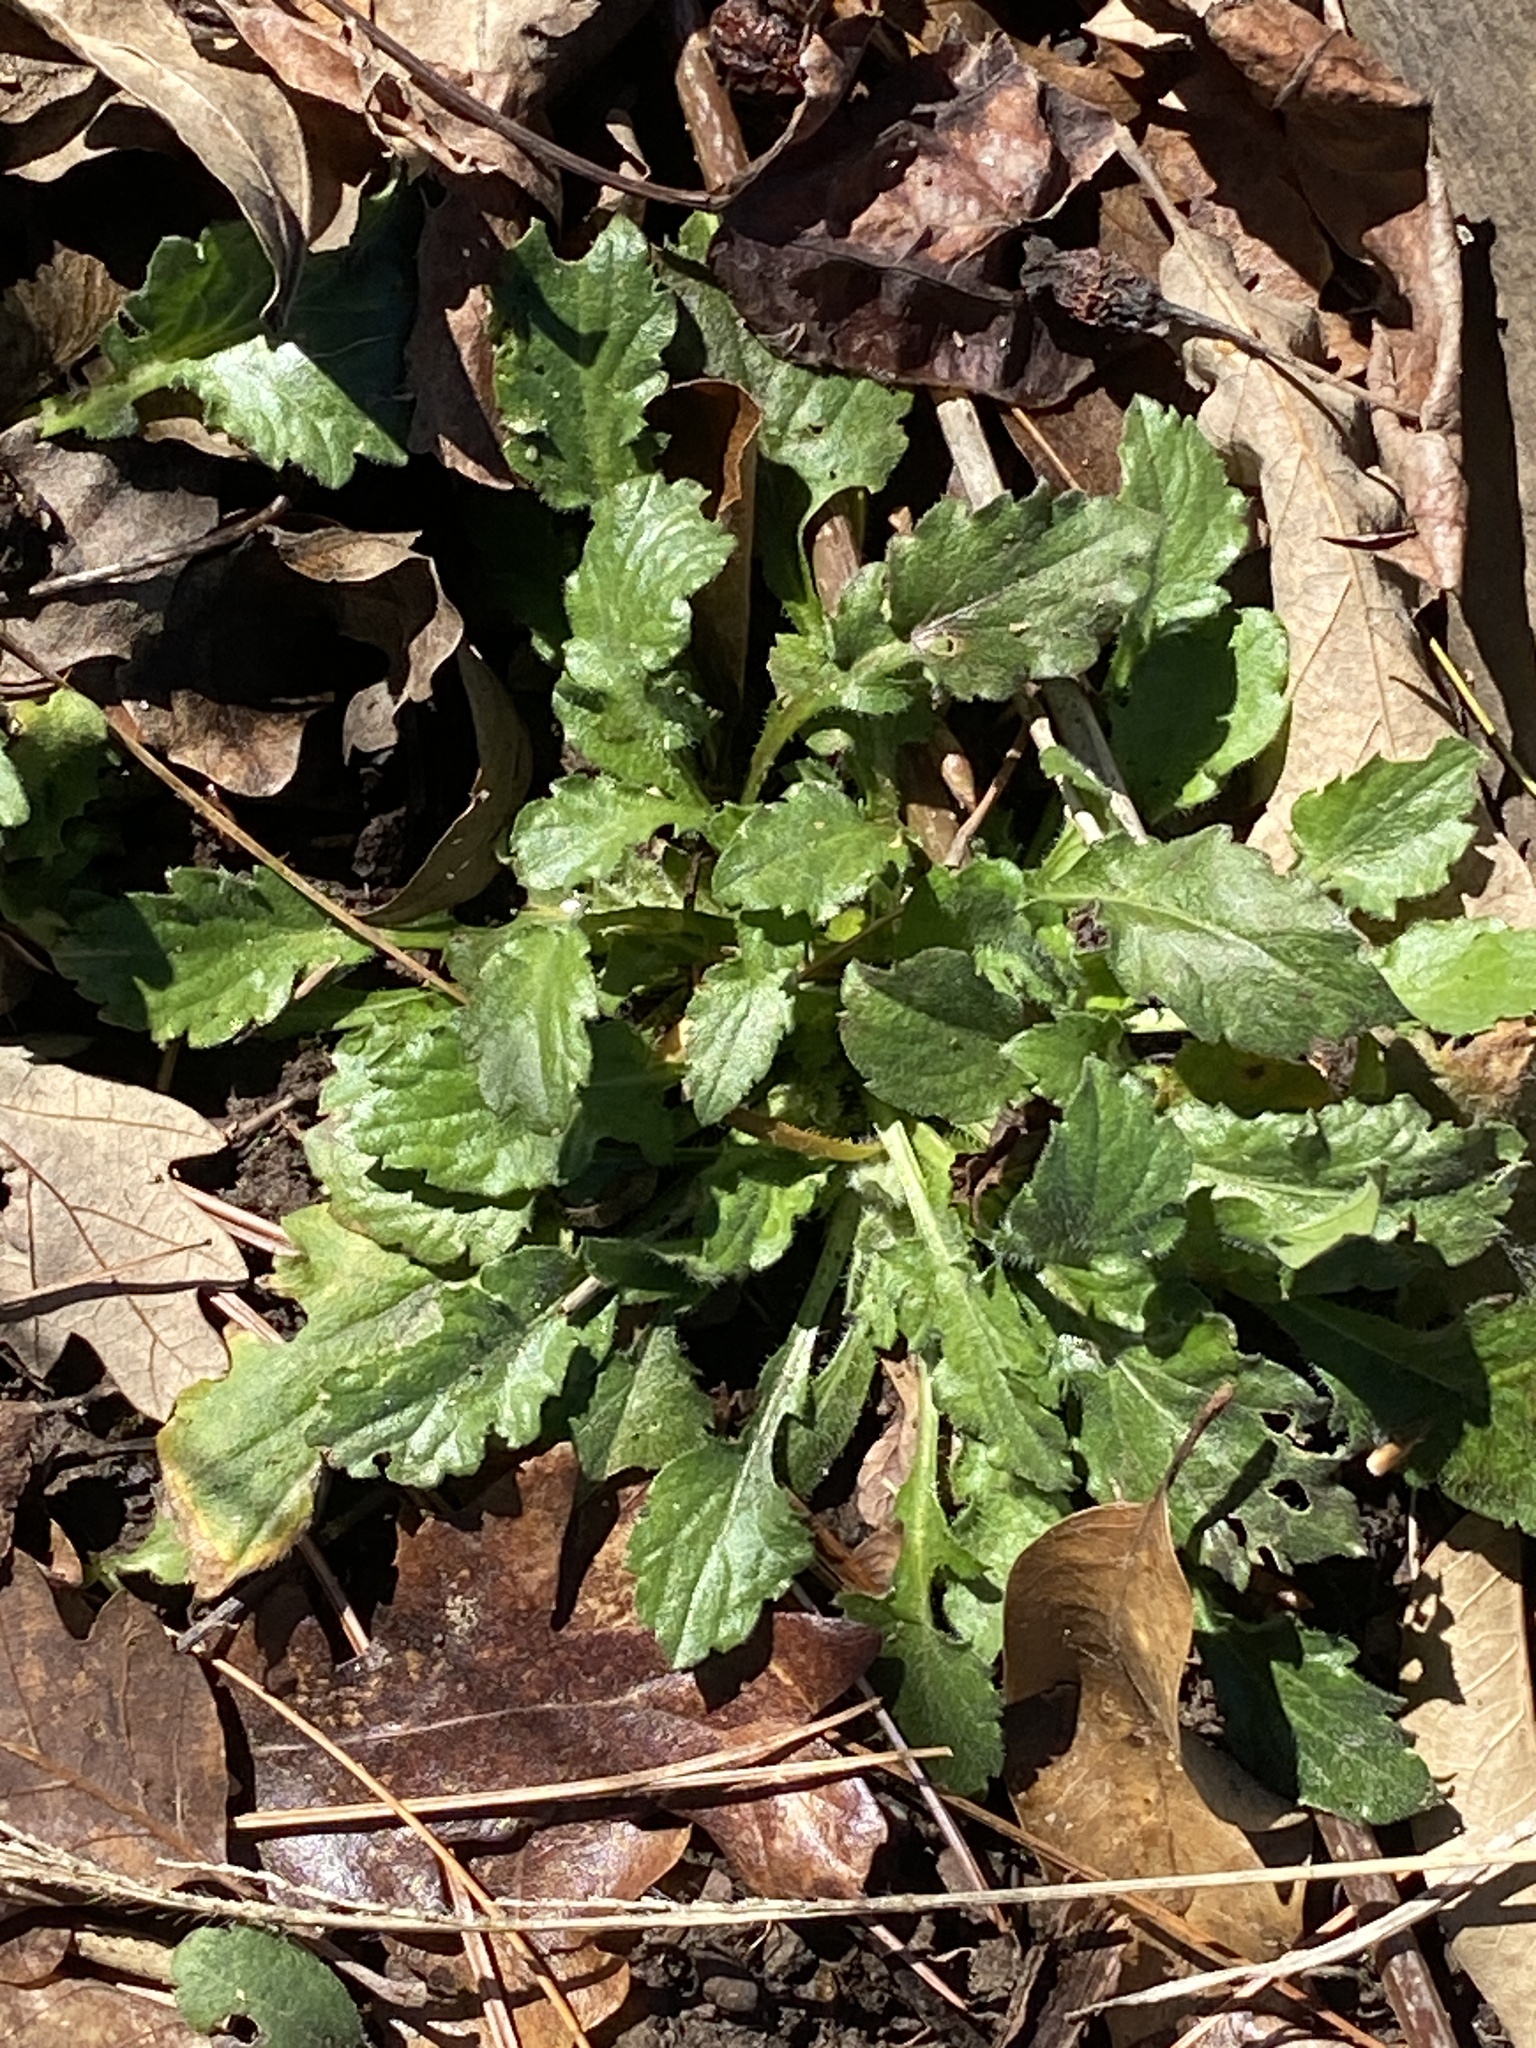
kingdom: Plantae
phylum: Tracheophyta
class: Magnoliopsida
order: Asterales
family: Asteraceae
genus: Erigeron
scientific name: Erigeron annuus
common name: Tall fleabane
